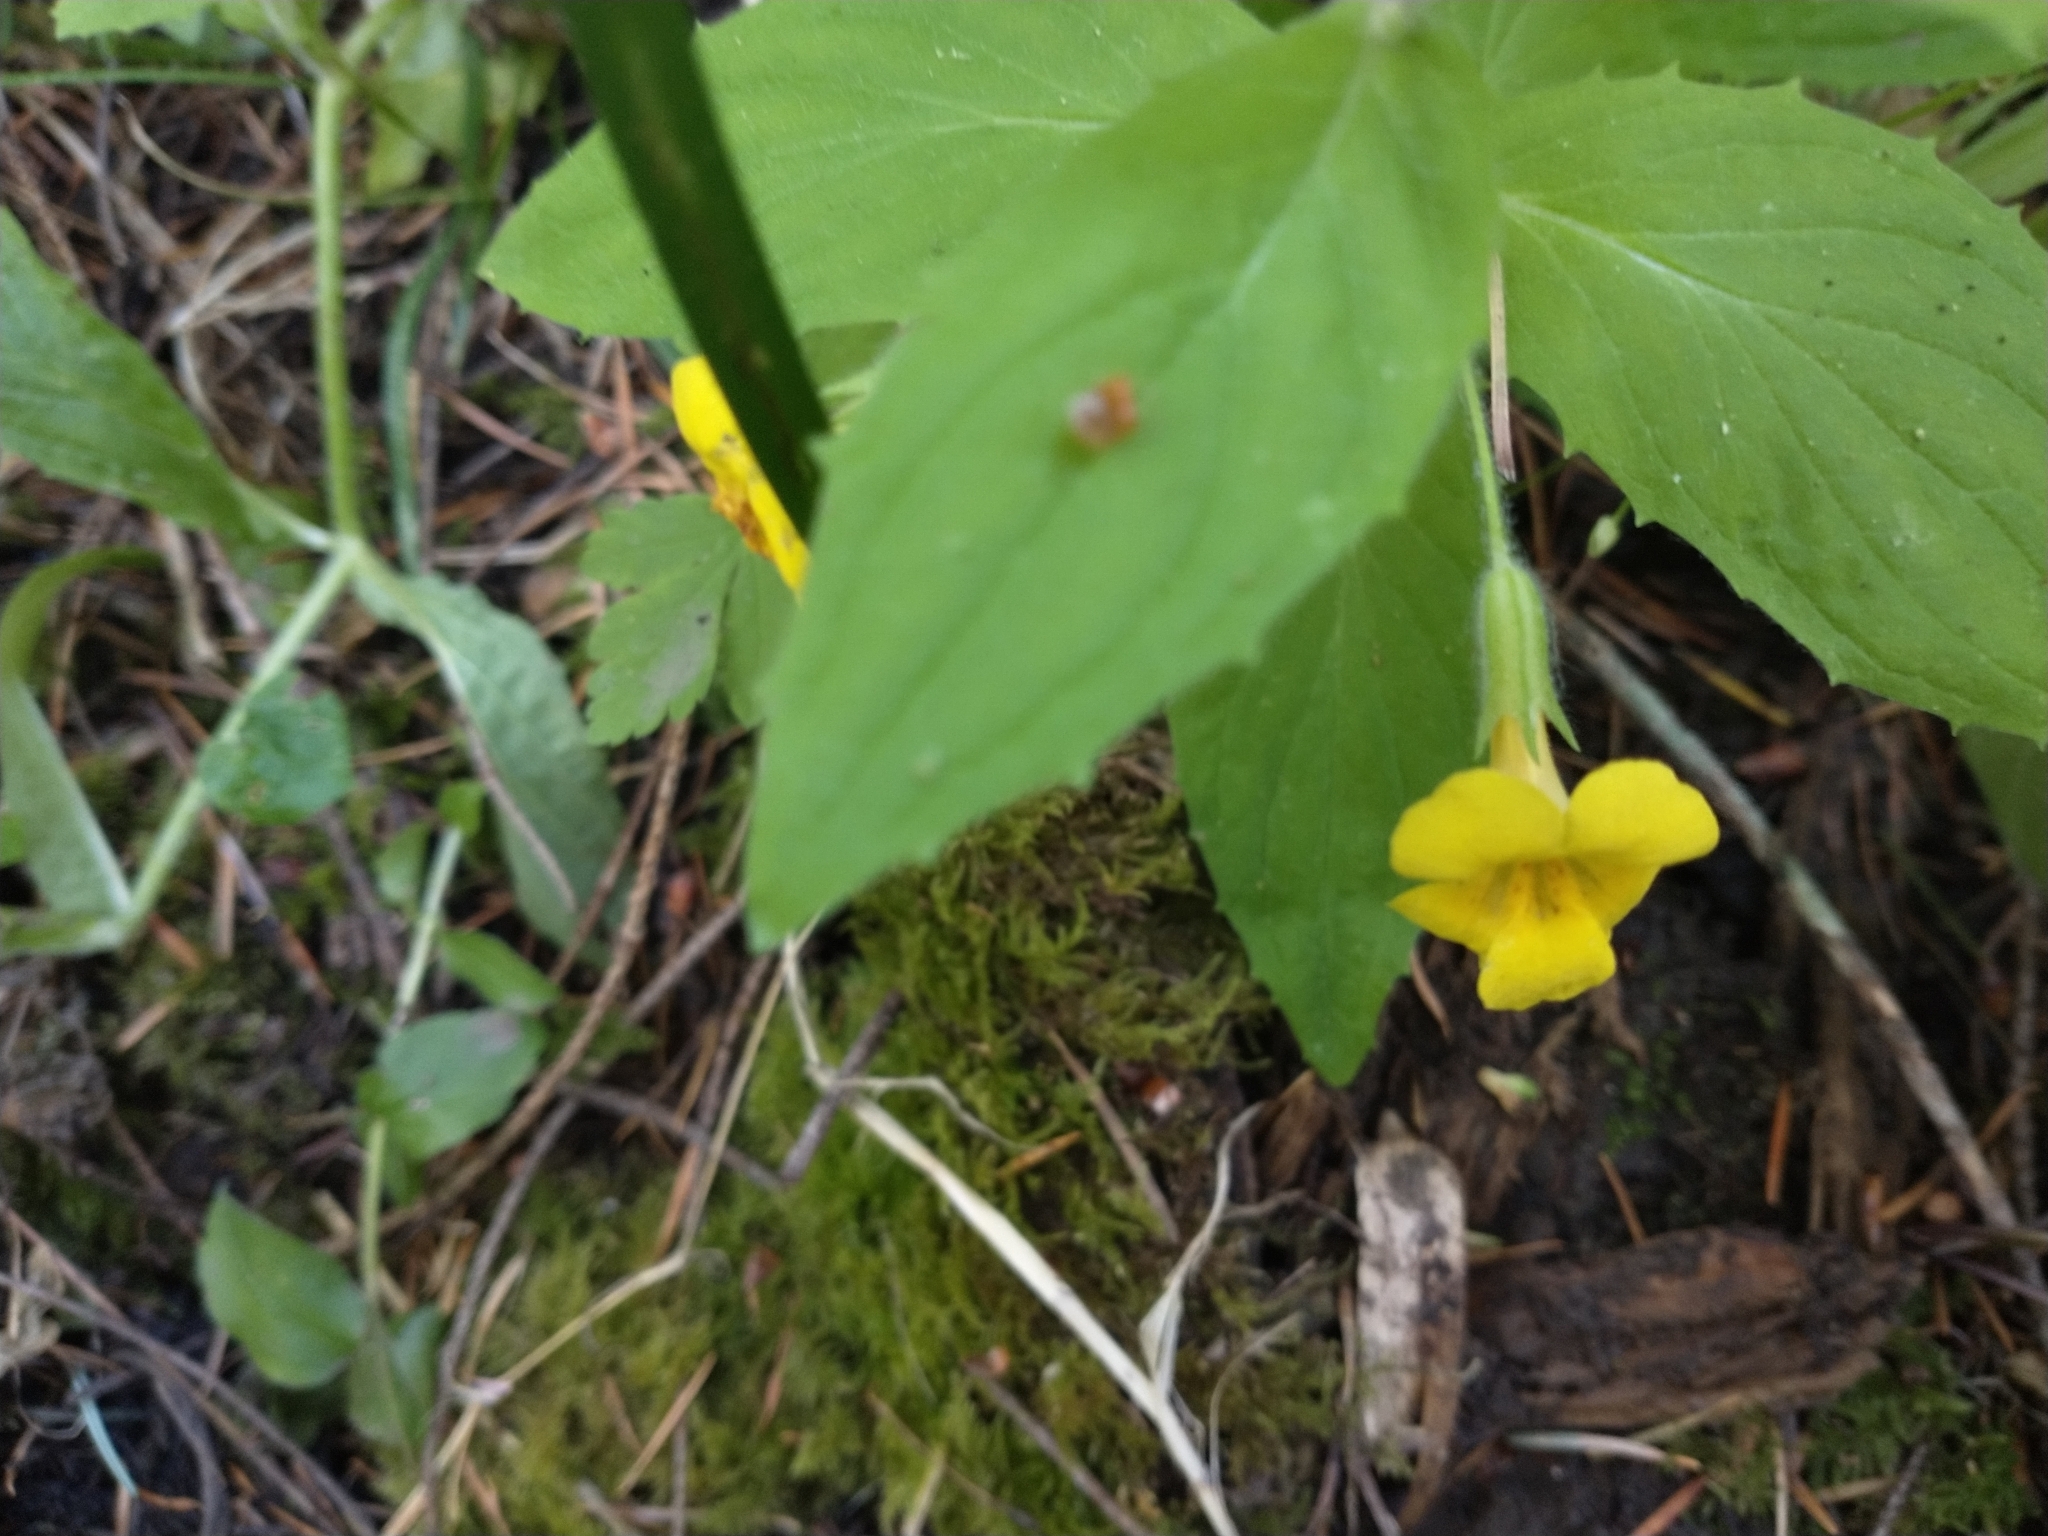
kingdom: Plantae
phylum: Tracheophyta
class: Magnoliopsida
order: Lamiales
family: Phrymaceae
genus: Erythranthe
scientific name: Erythranthe ptilota
